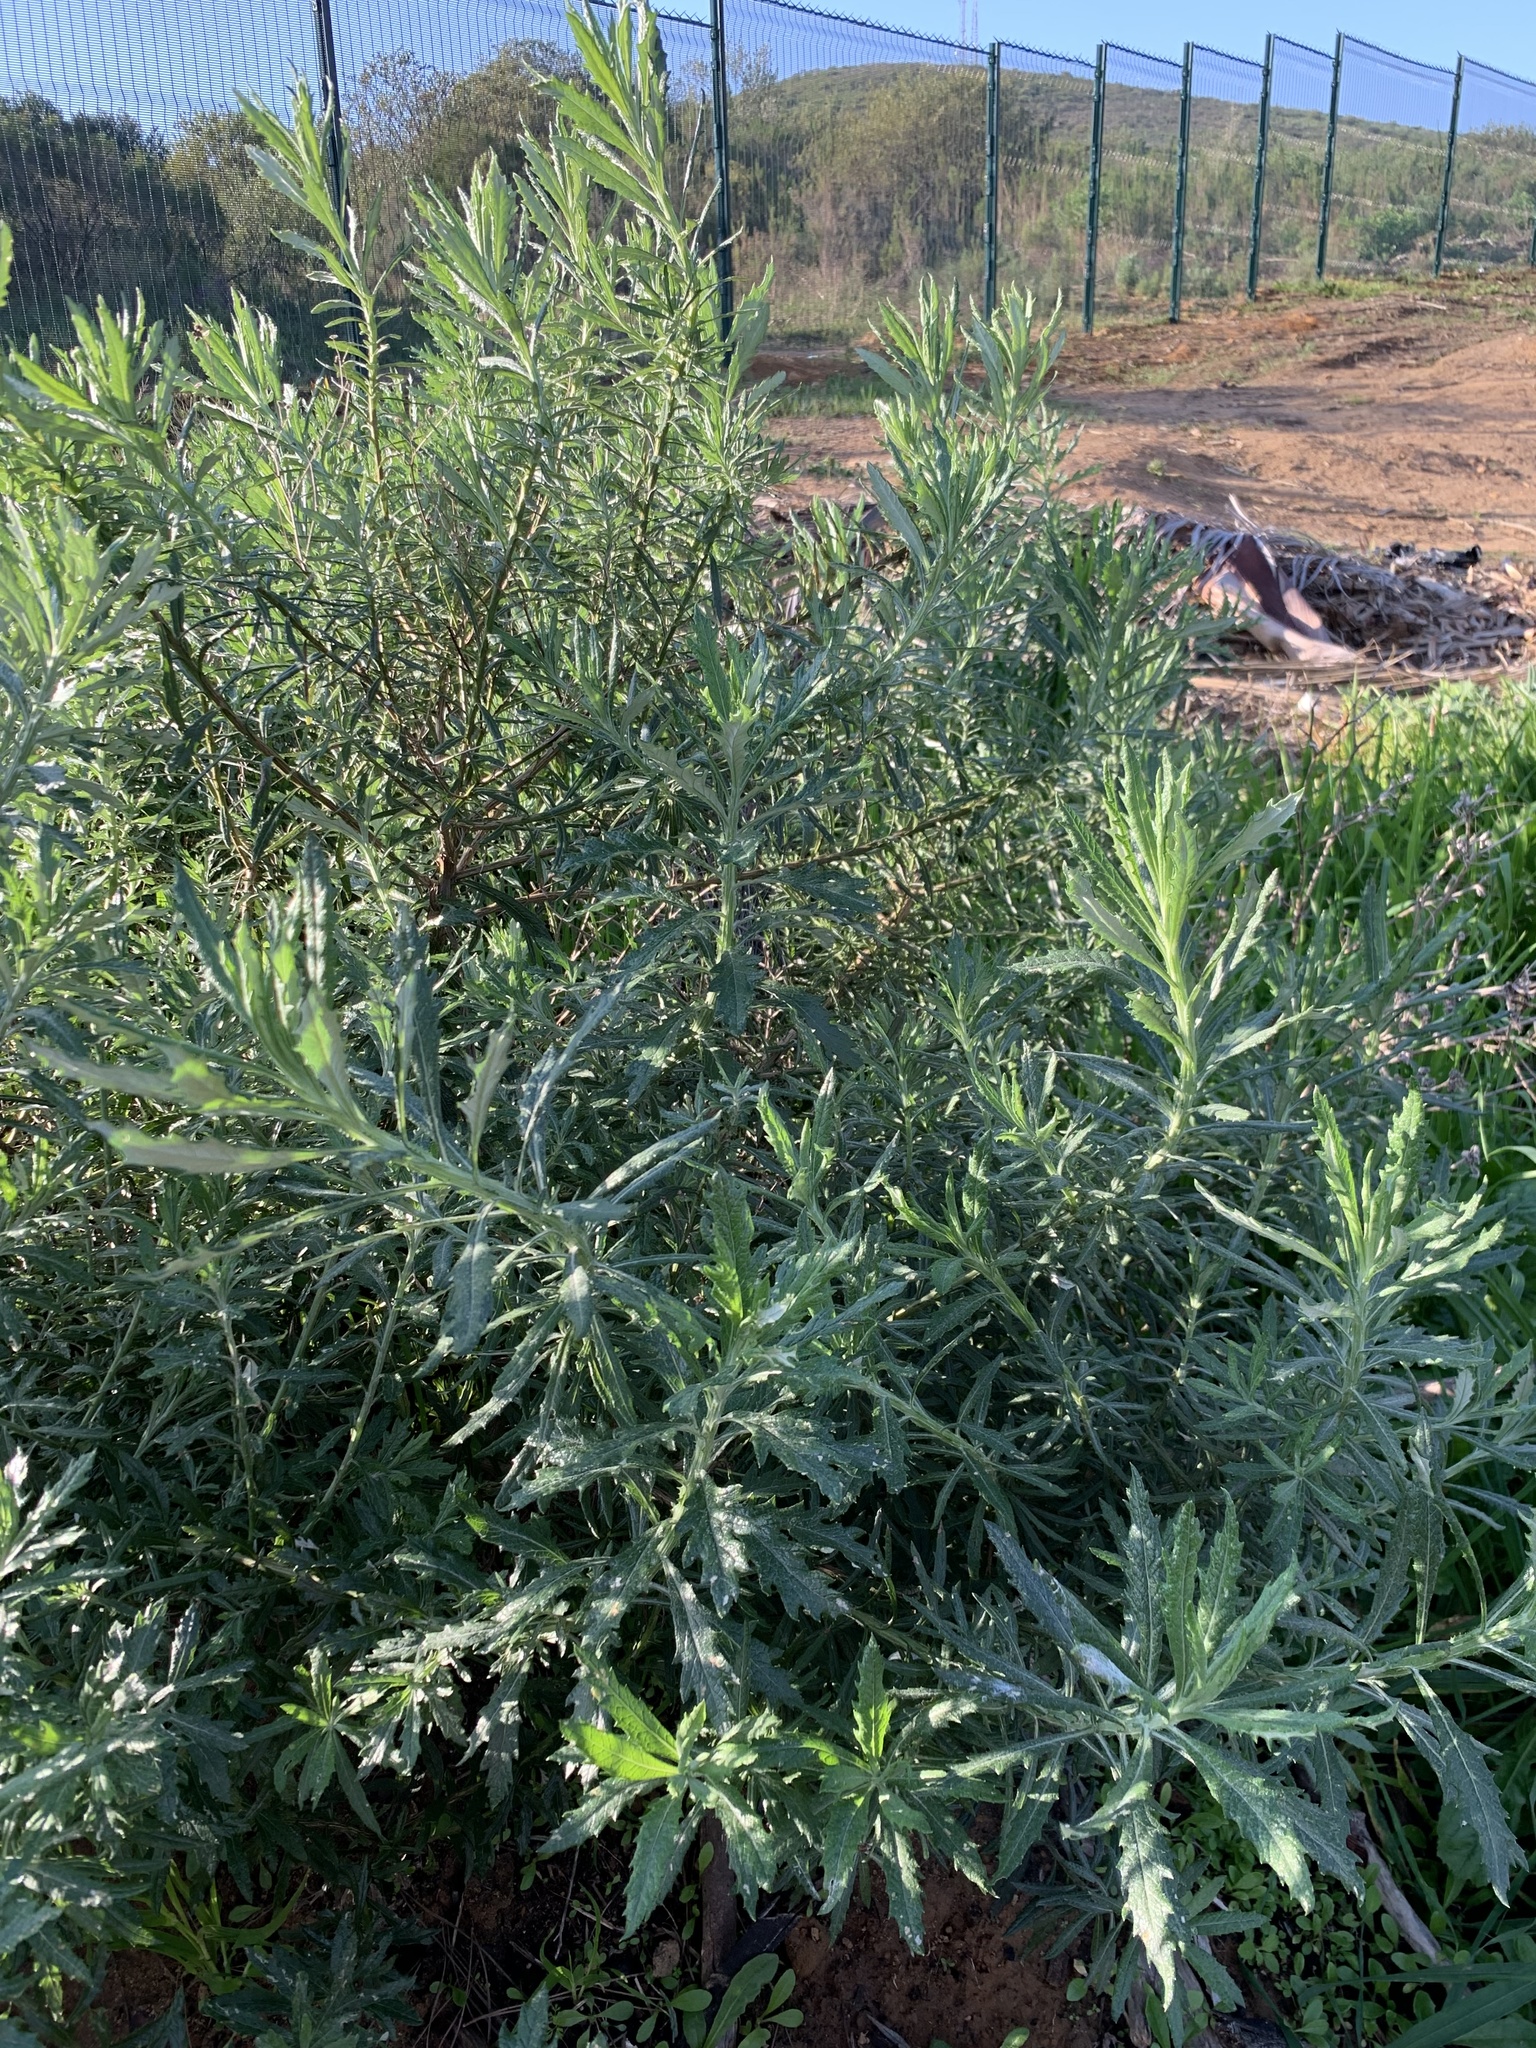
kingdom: Plantae
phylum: Tracheophyta
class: Magnoliopsida
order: Asterales
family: Asteraceae
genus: Senecio
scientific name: Senecio pterophorus
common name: Shoddy ragwort
